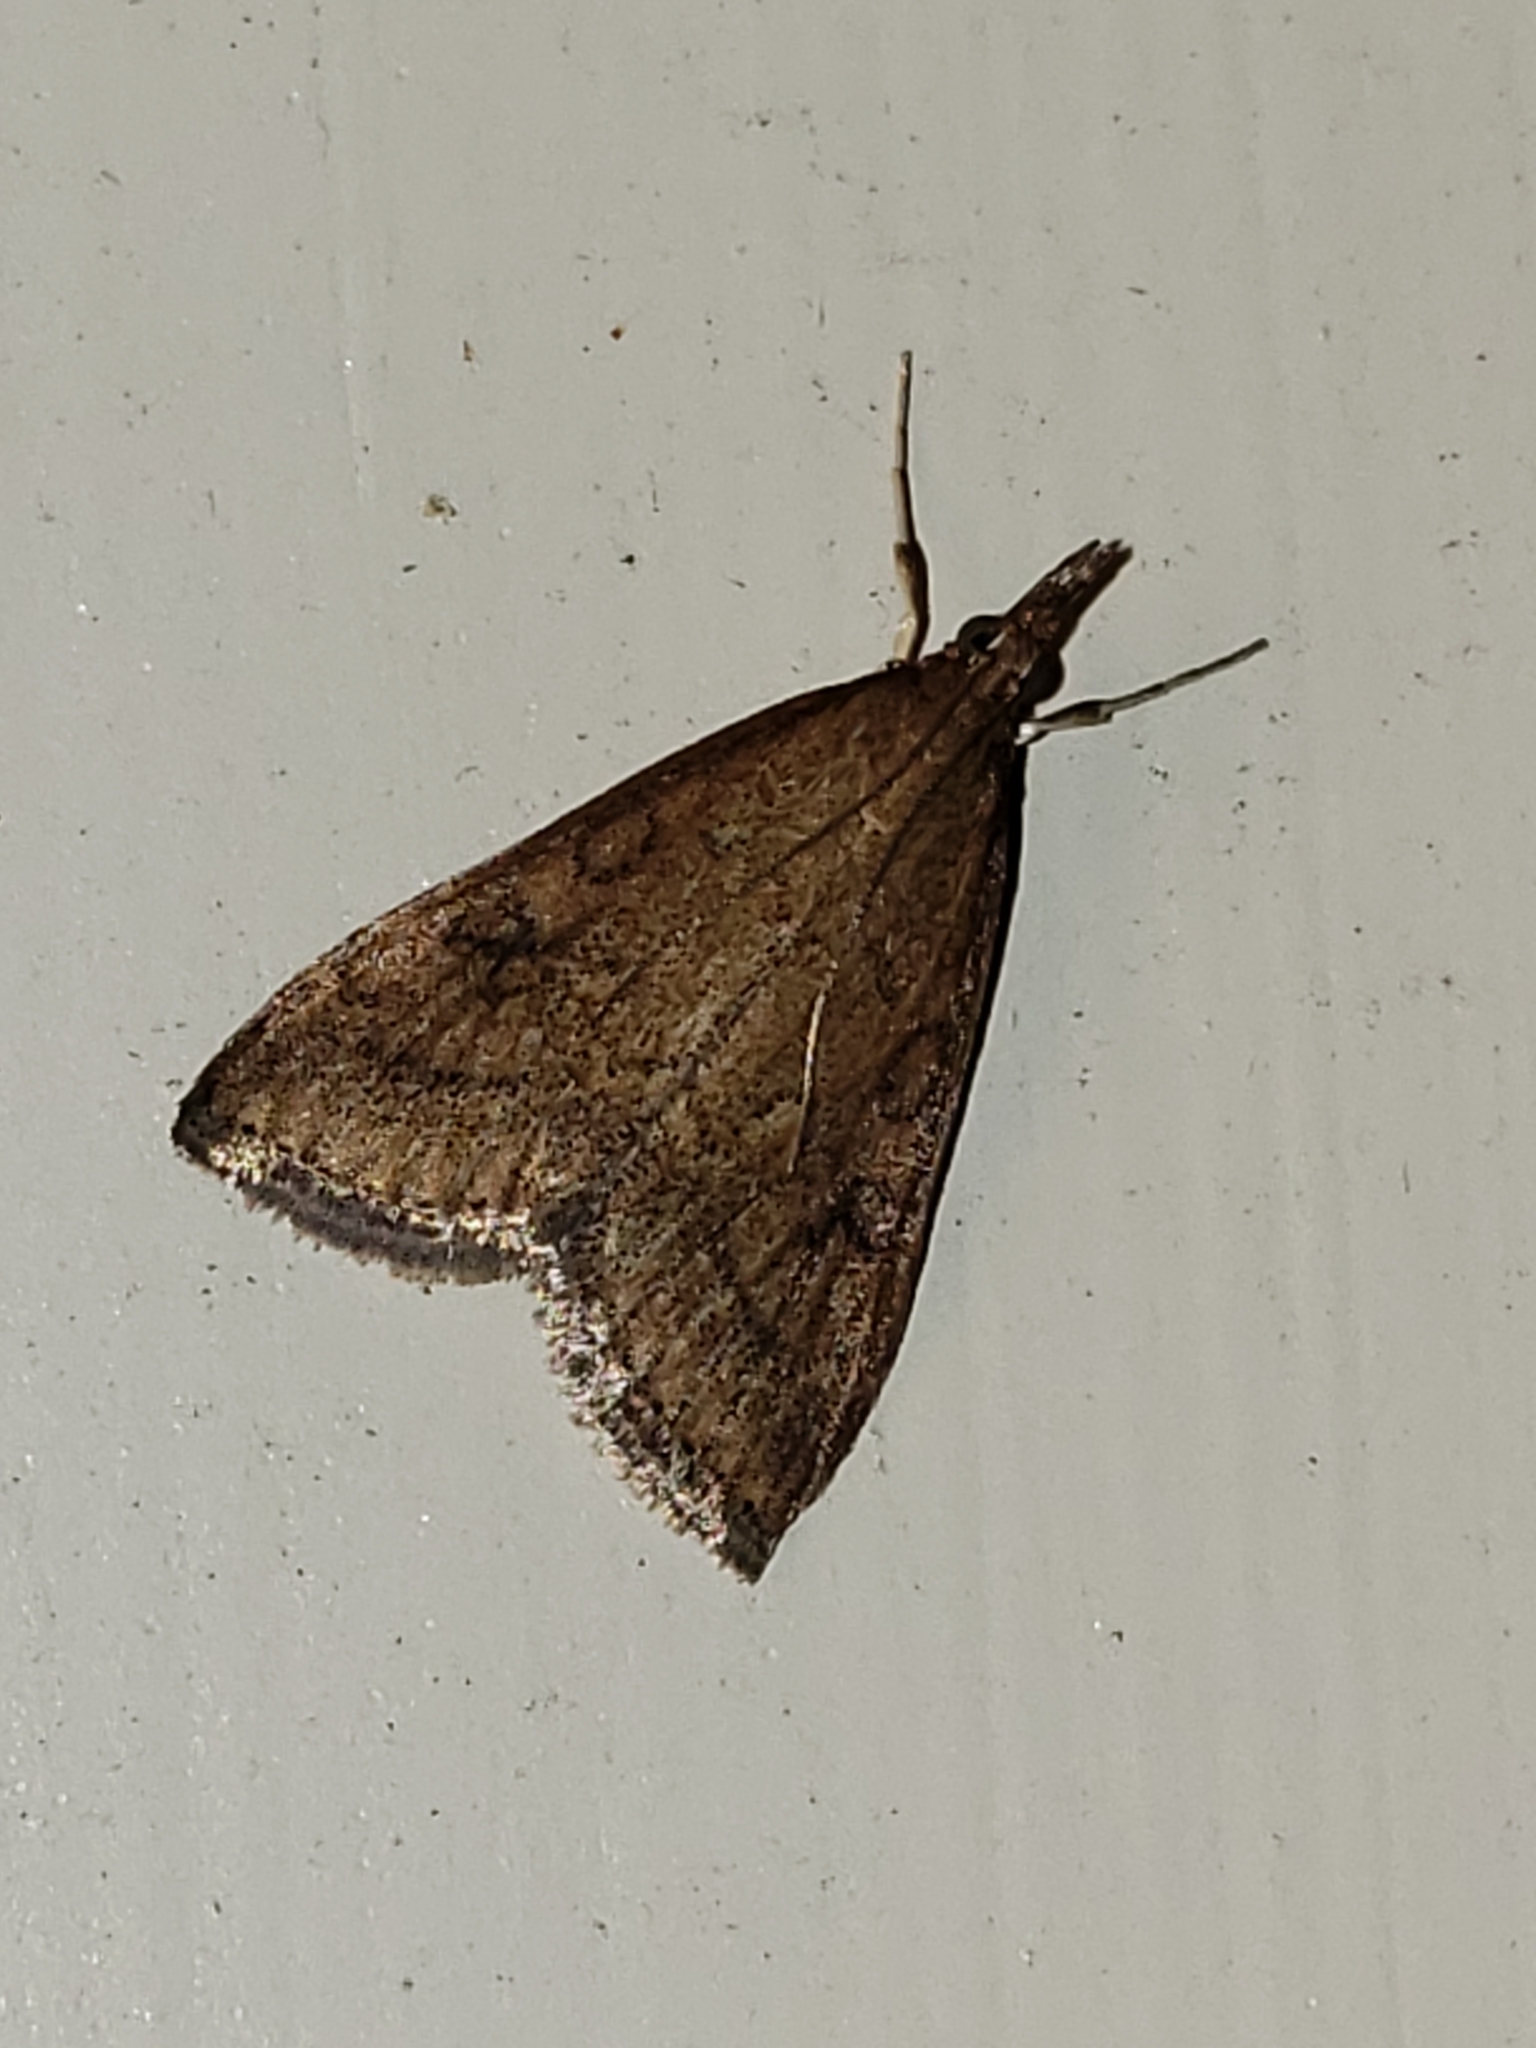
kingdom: Animalia
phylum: Arthropoda
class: Insecta
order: Lepidoptera
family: Crambidae
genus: Udea
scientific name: Udea rubigalis
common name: Celery leaftier moth
